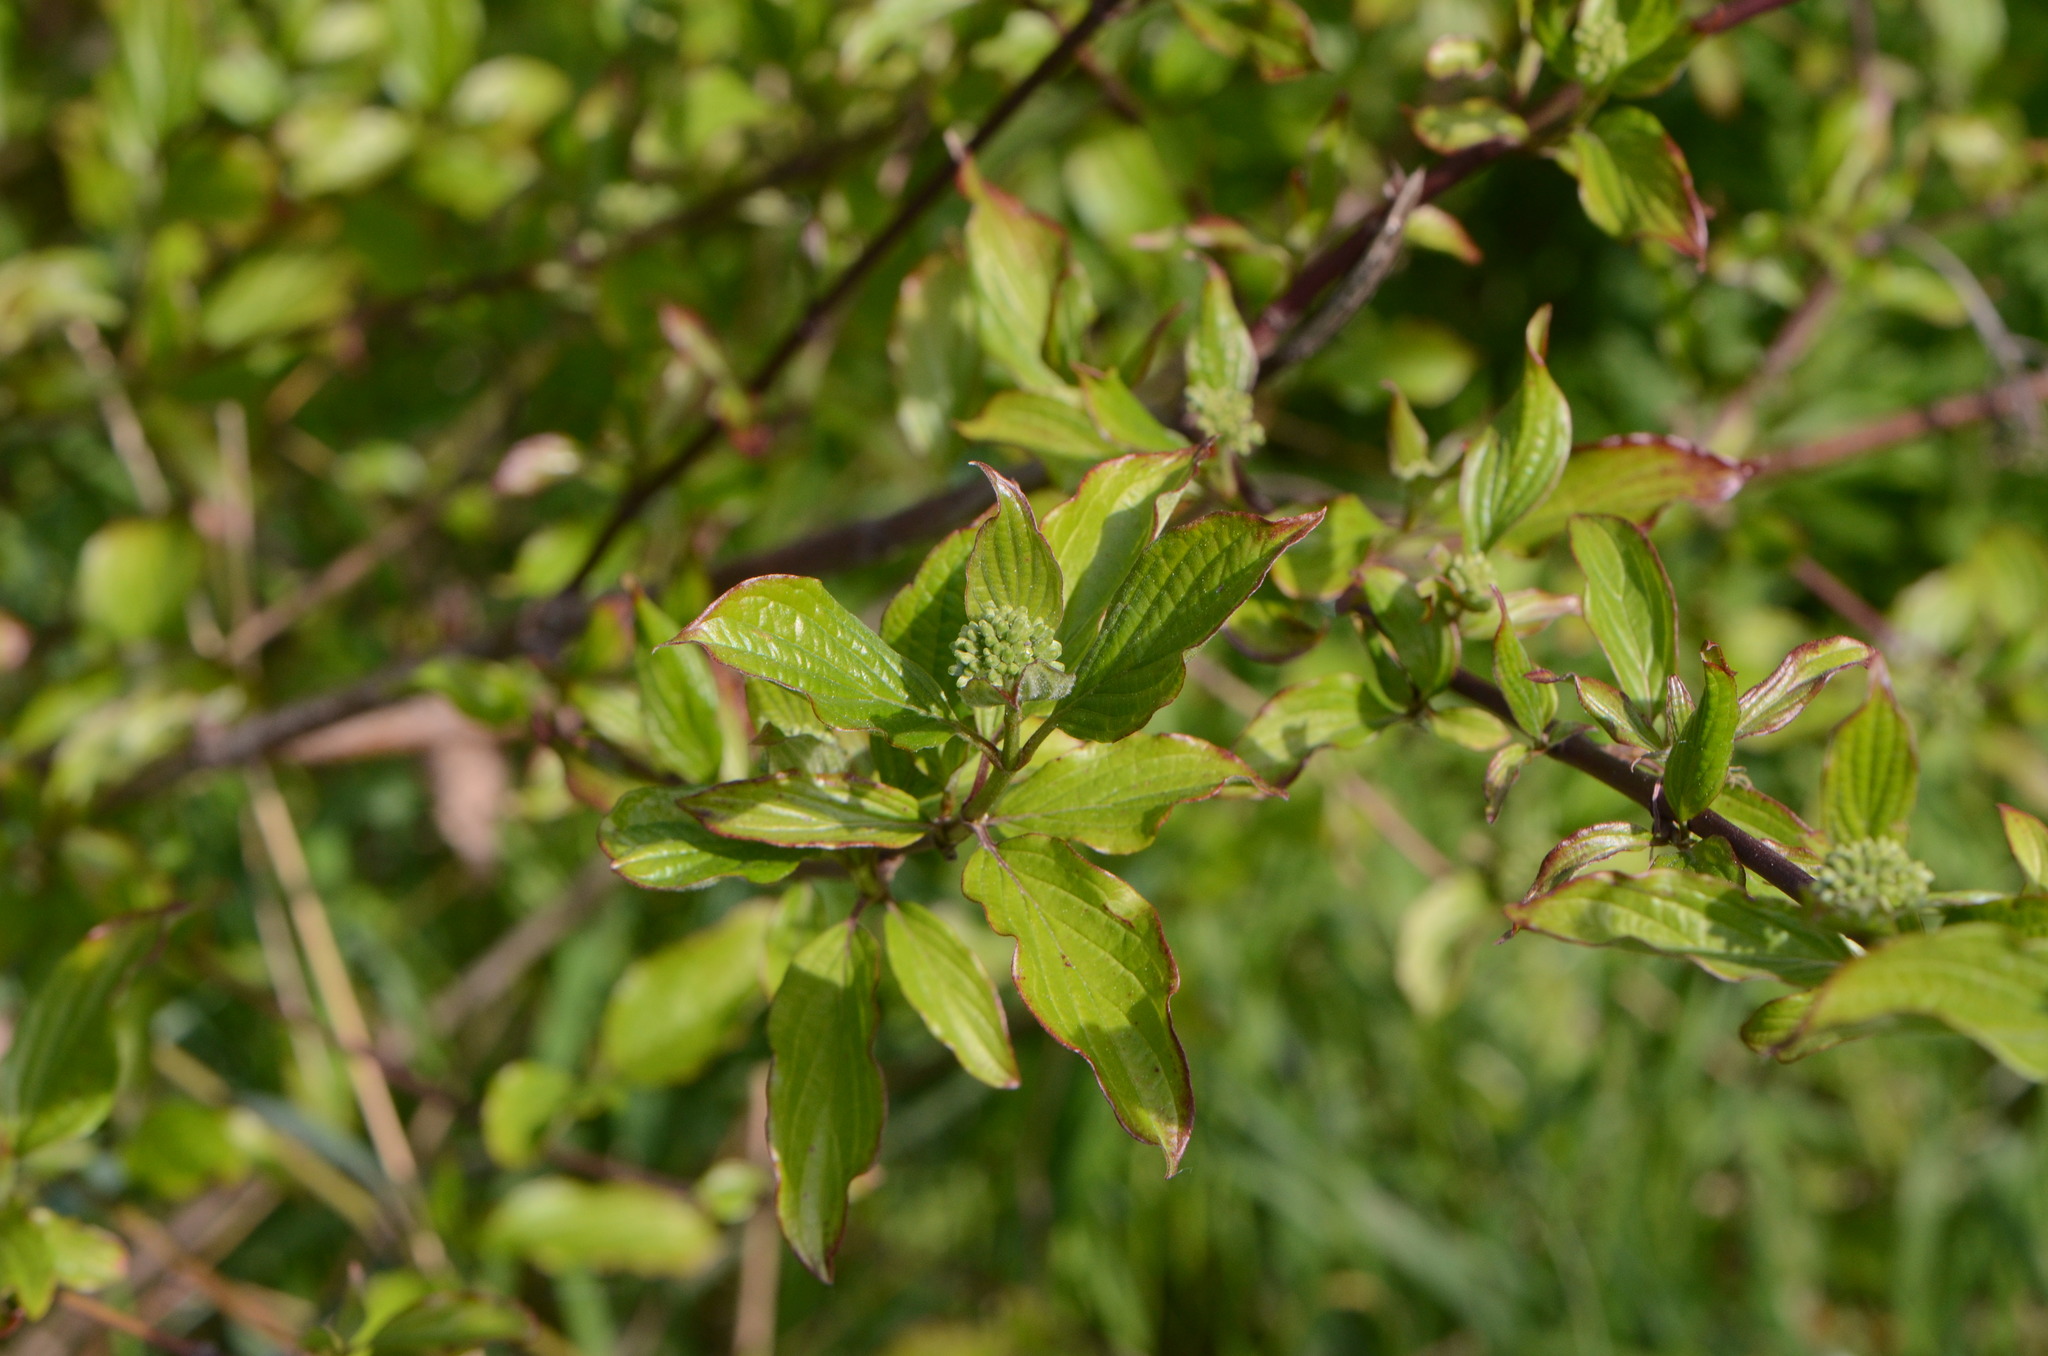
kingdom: Plantae
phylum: Tracheophyta
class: Magnoliopsida
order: Cornales
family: Cornaceae
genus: Cornus
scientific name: Cornus sanguinea
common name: Dogwood
